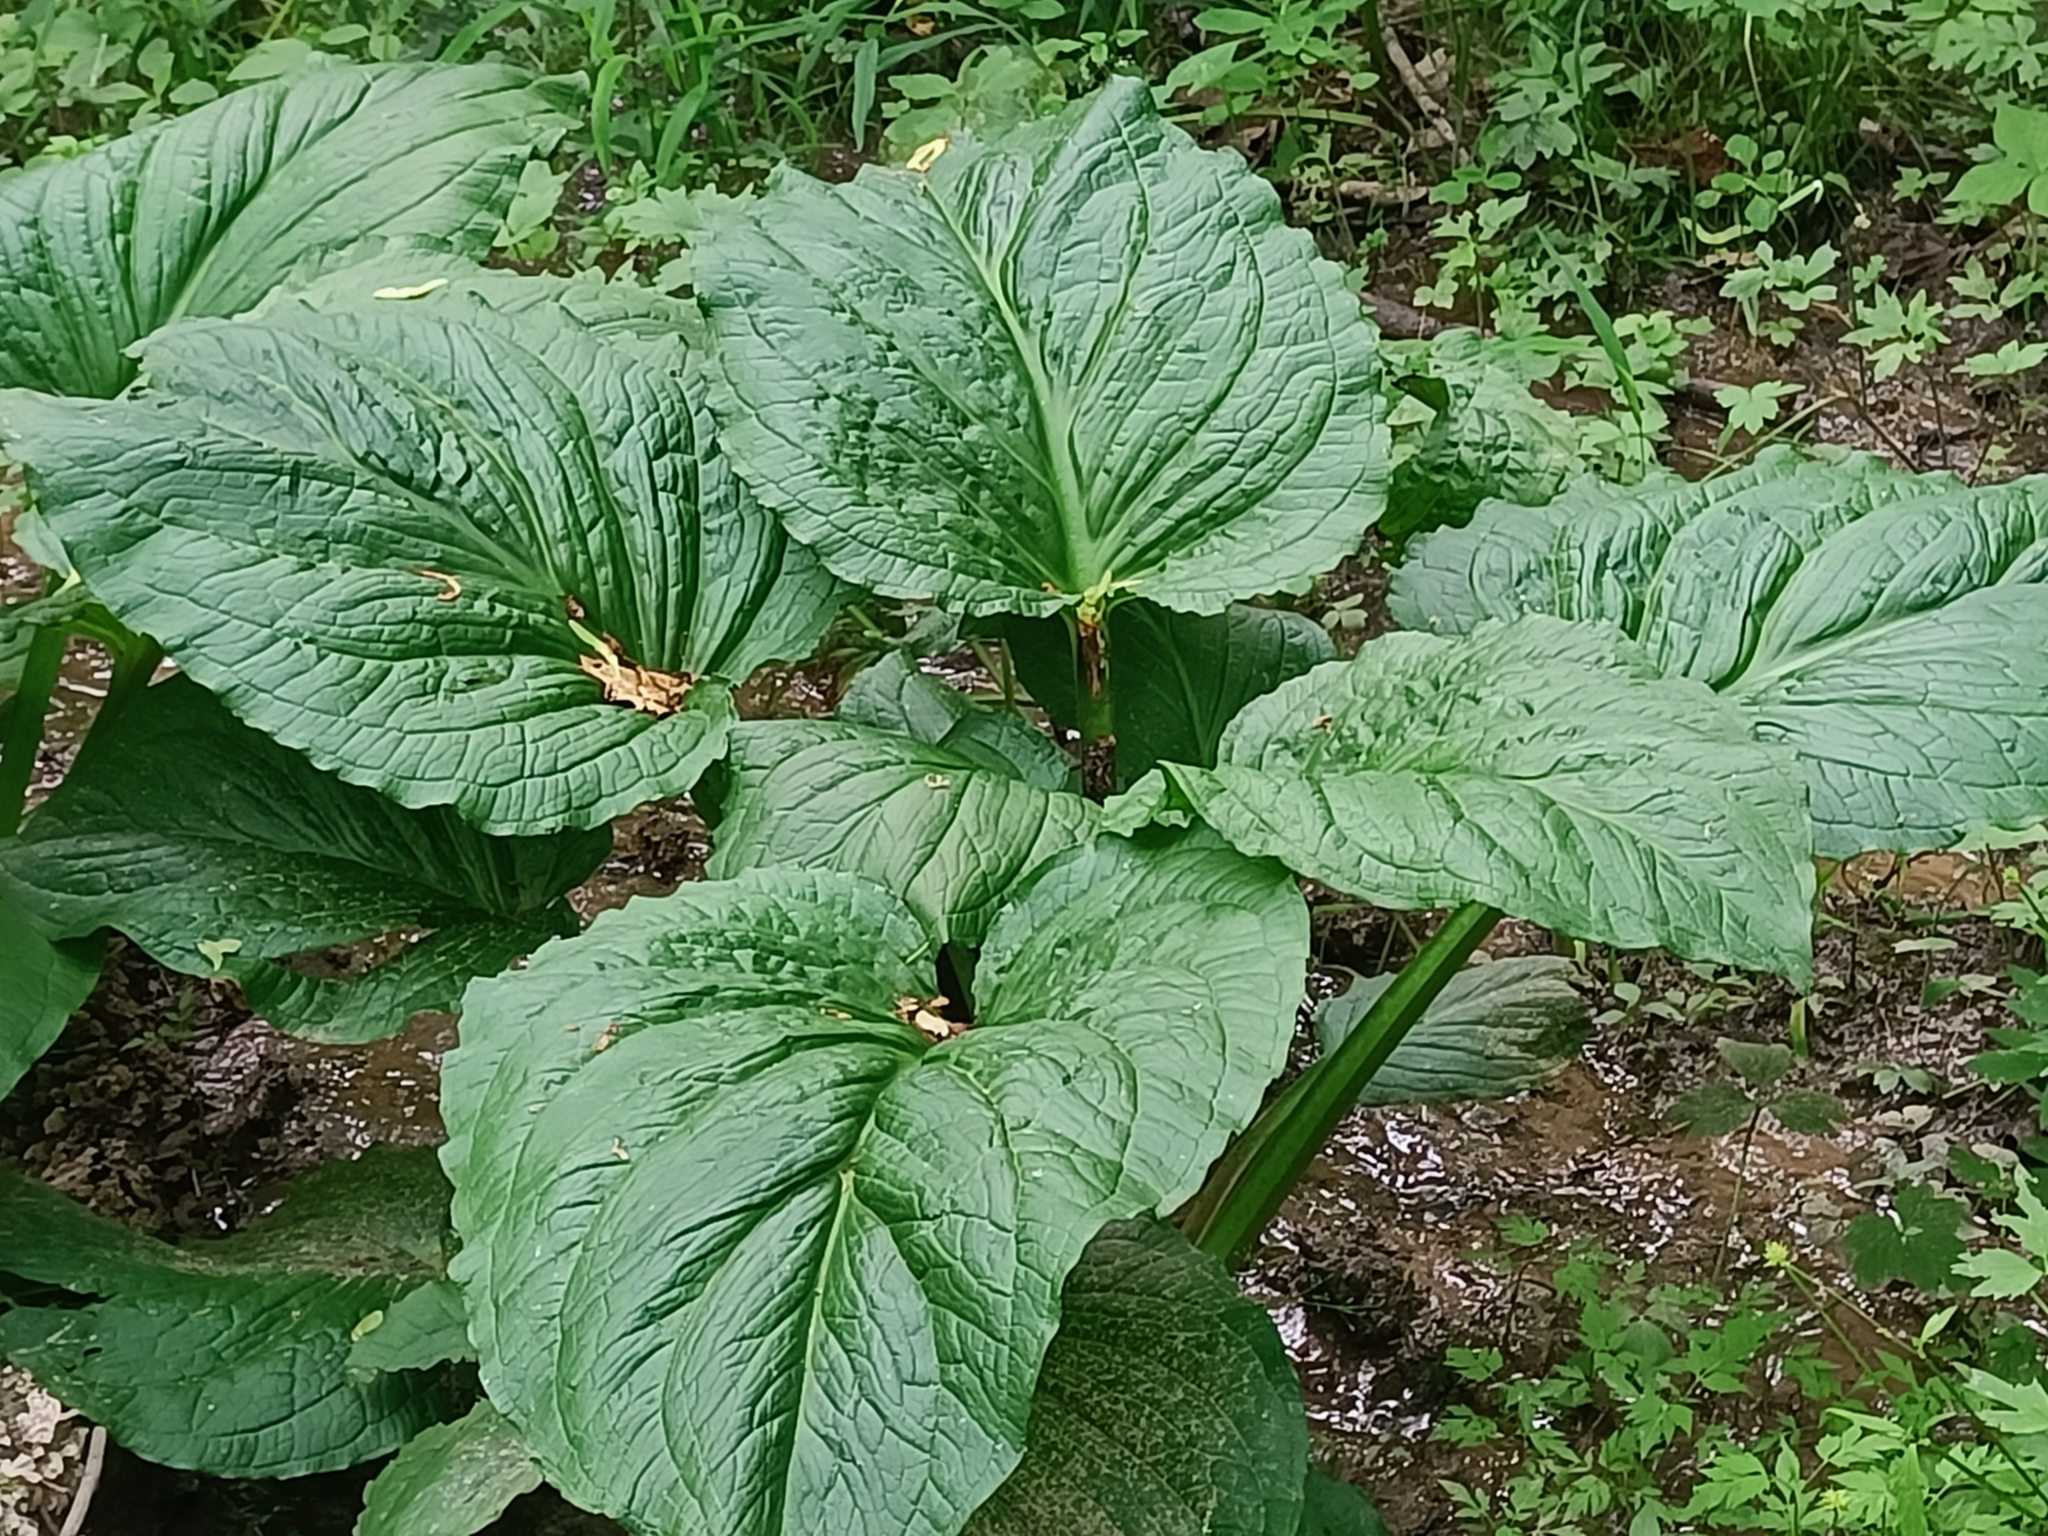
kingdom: Plantae
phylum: Tracheophyta
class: Liliopsida
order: Alismatales
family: Araceae
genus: Symplocarpus
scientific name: Symplocarpus foetidus
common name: Eastern skunk cabbage
